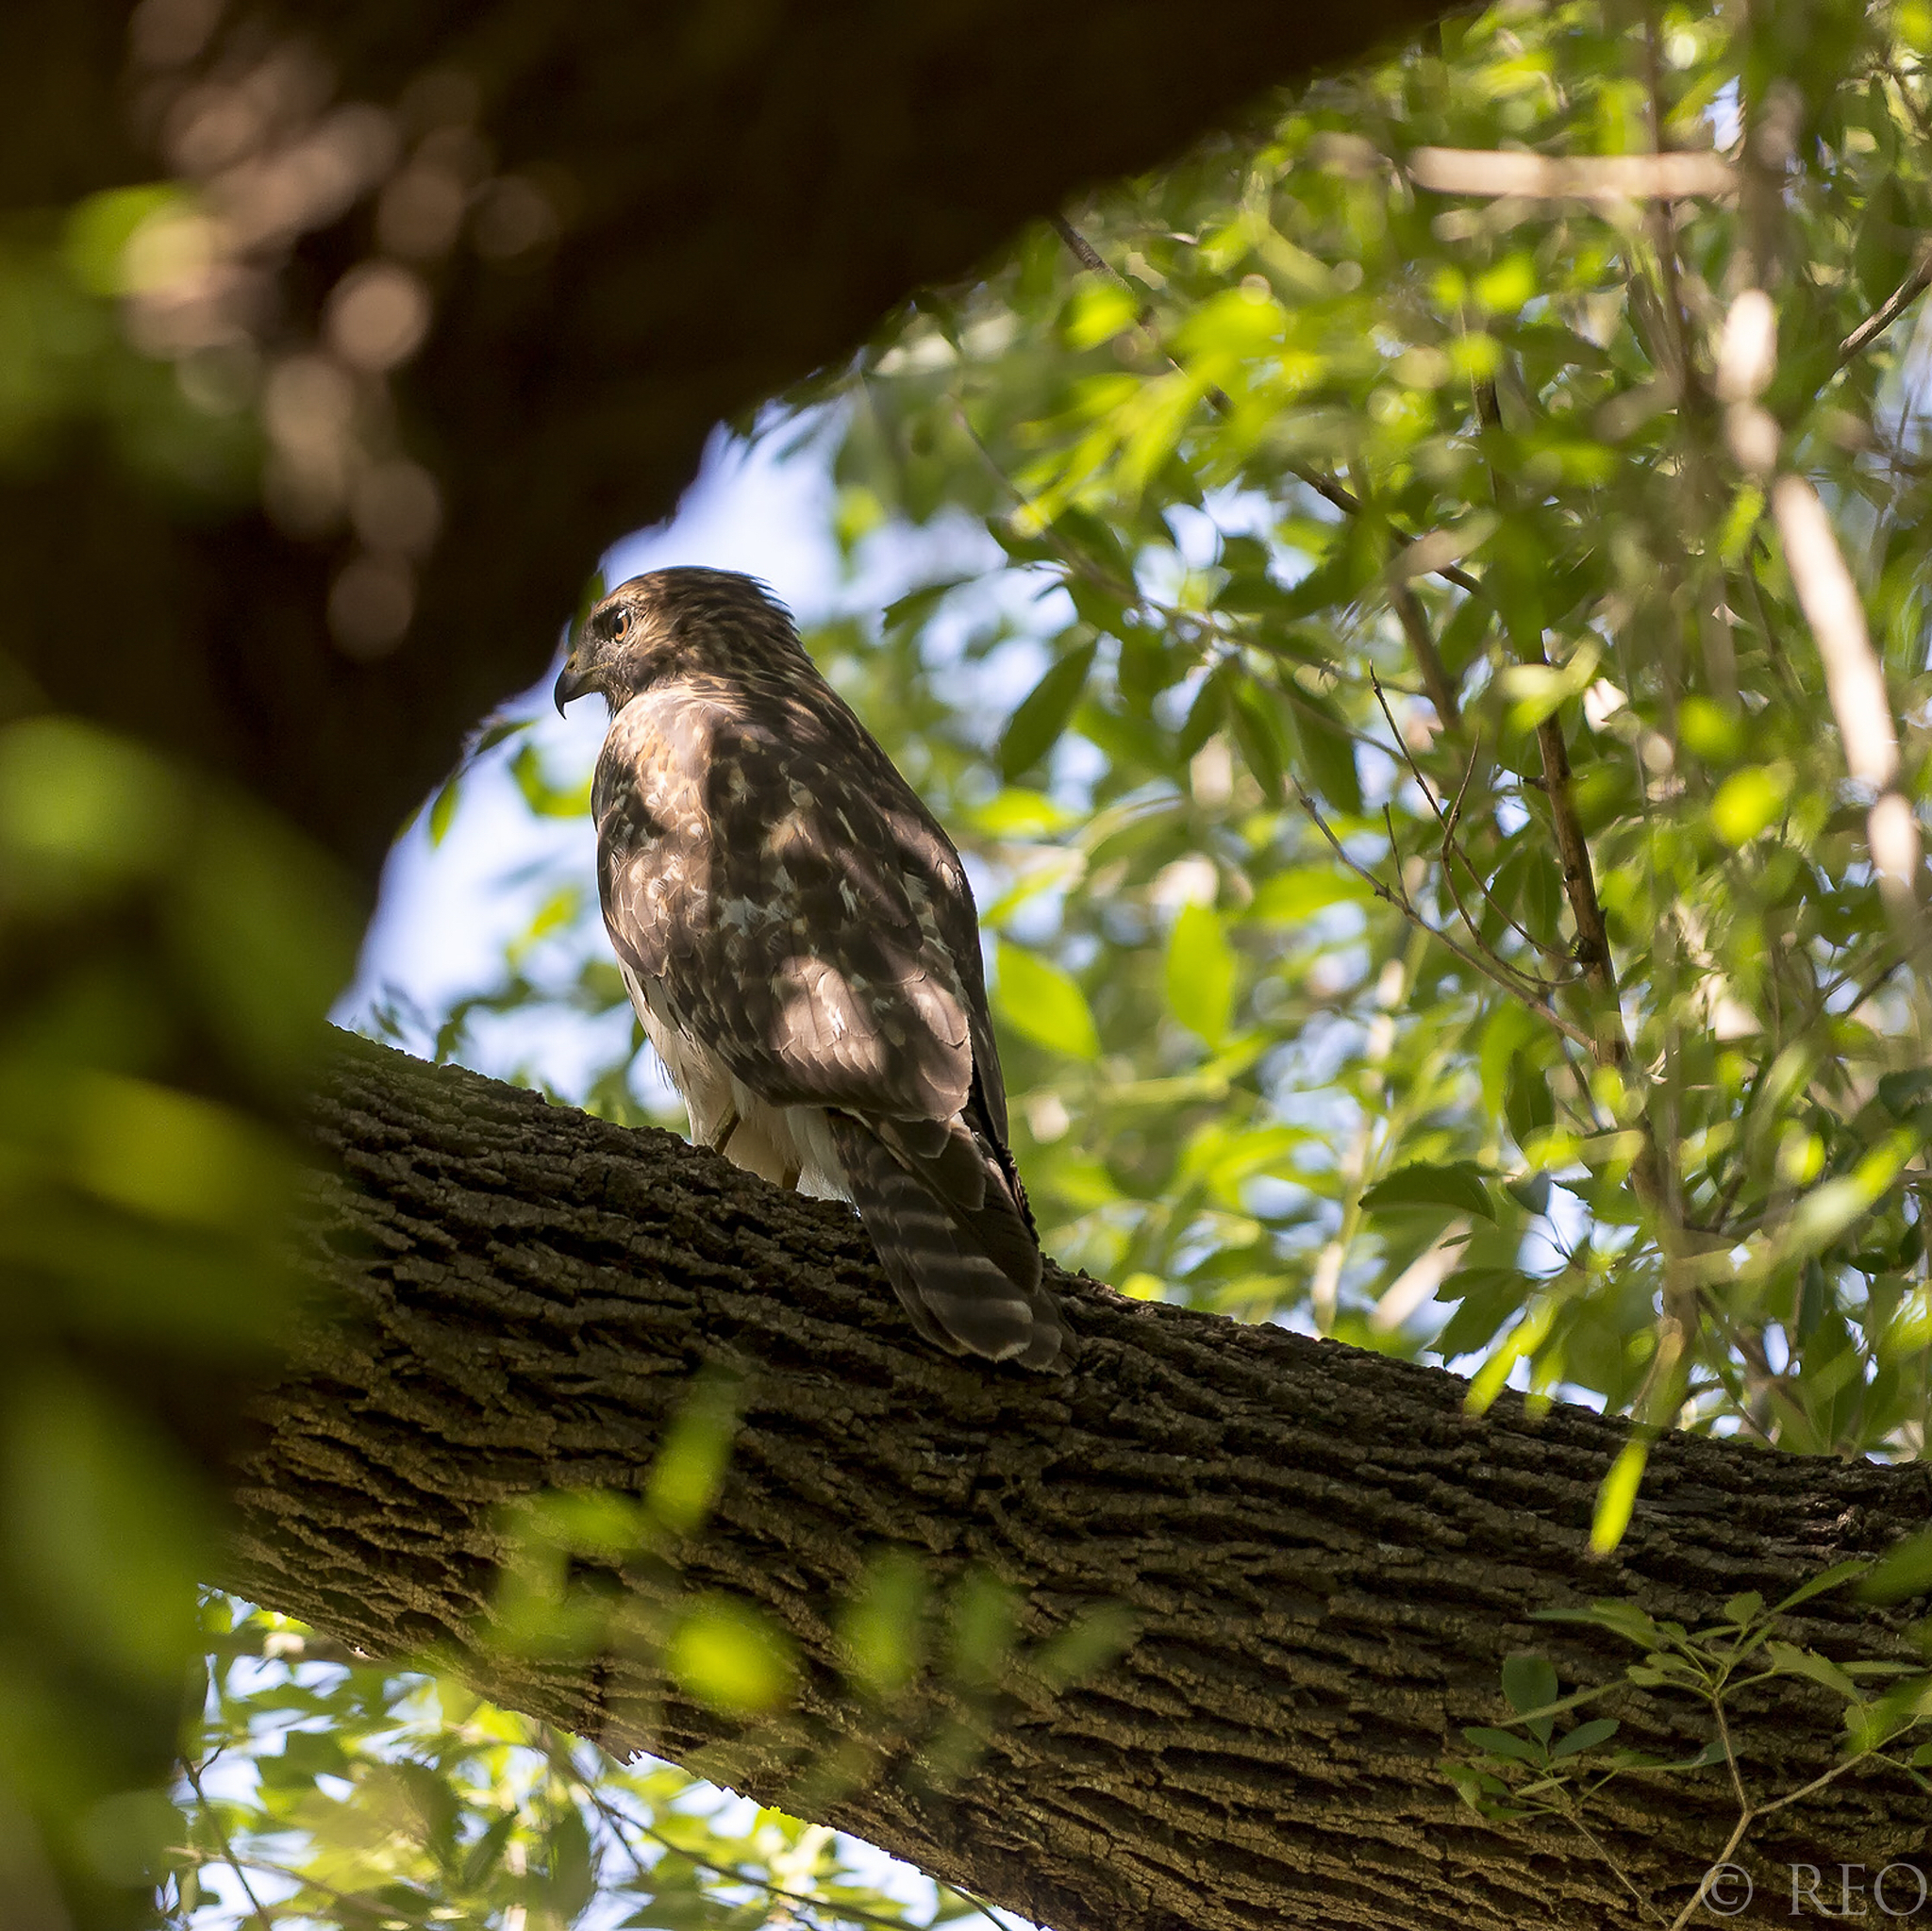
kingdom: Animalia
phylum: Chordata
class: Aves
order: Accipitriformes
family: Accipitridae
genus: Buteo
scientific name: Buteo lineatus
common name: Red-shouldered hawk
